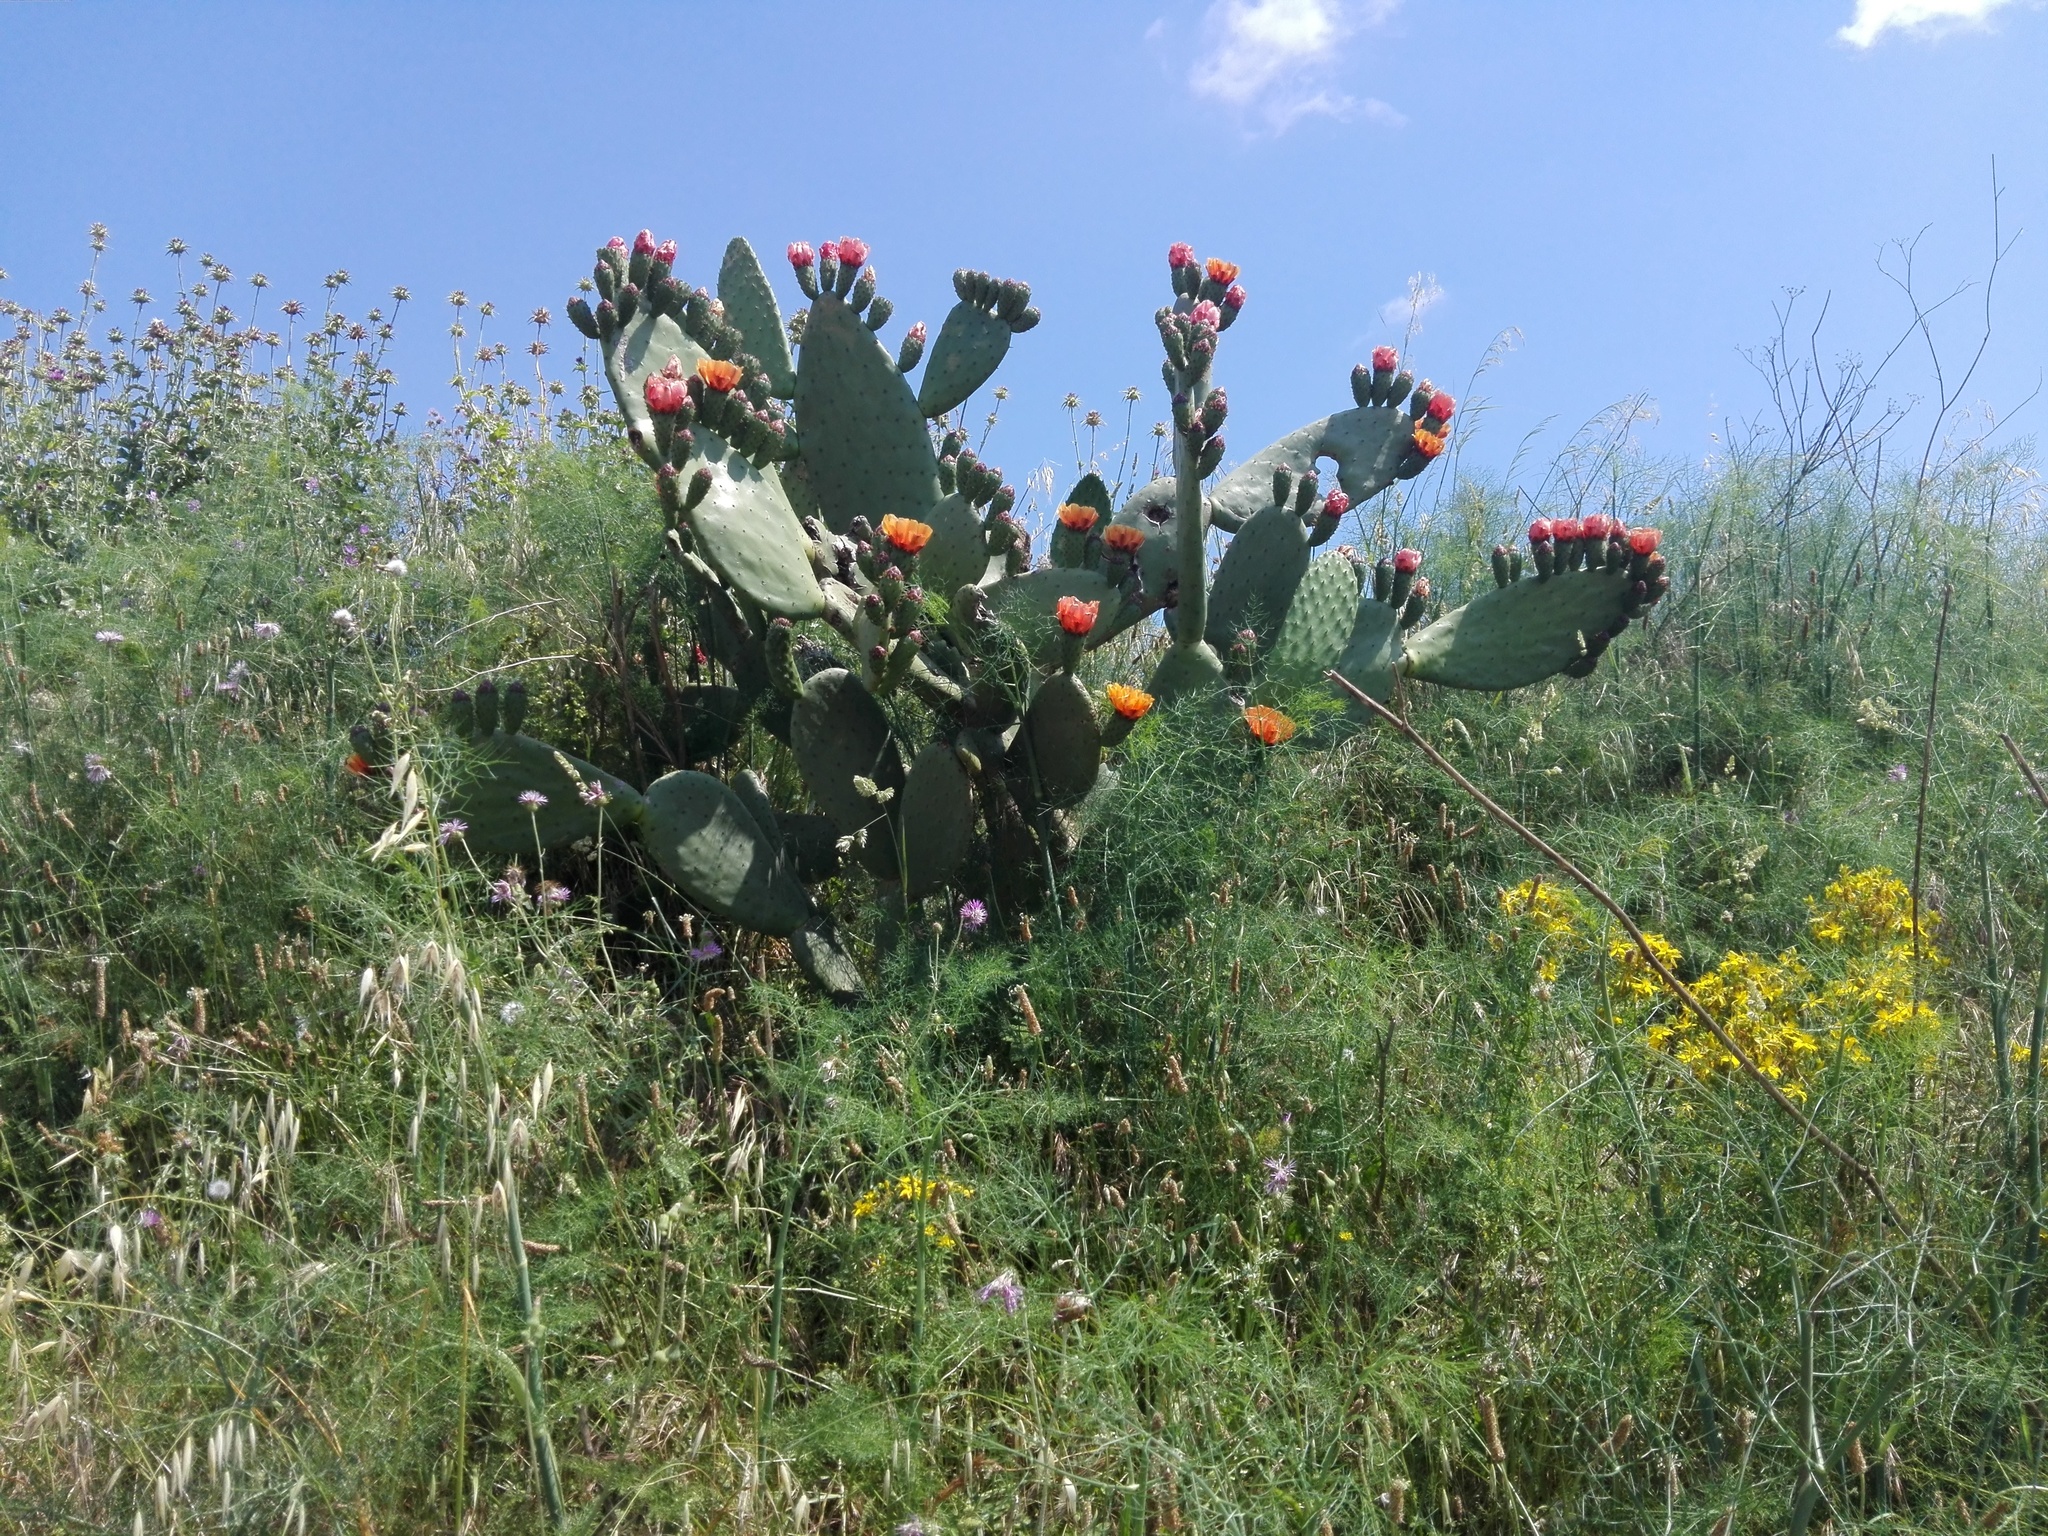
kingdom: Plantae
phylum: Tracheophyta
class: Magnoliopsida
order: Caryophyllales
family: Cactaceae
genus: Opuntia
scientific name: Opuntia ficus-indica
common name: Barbary fig
